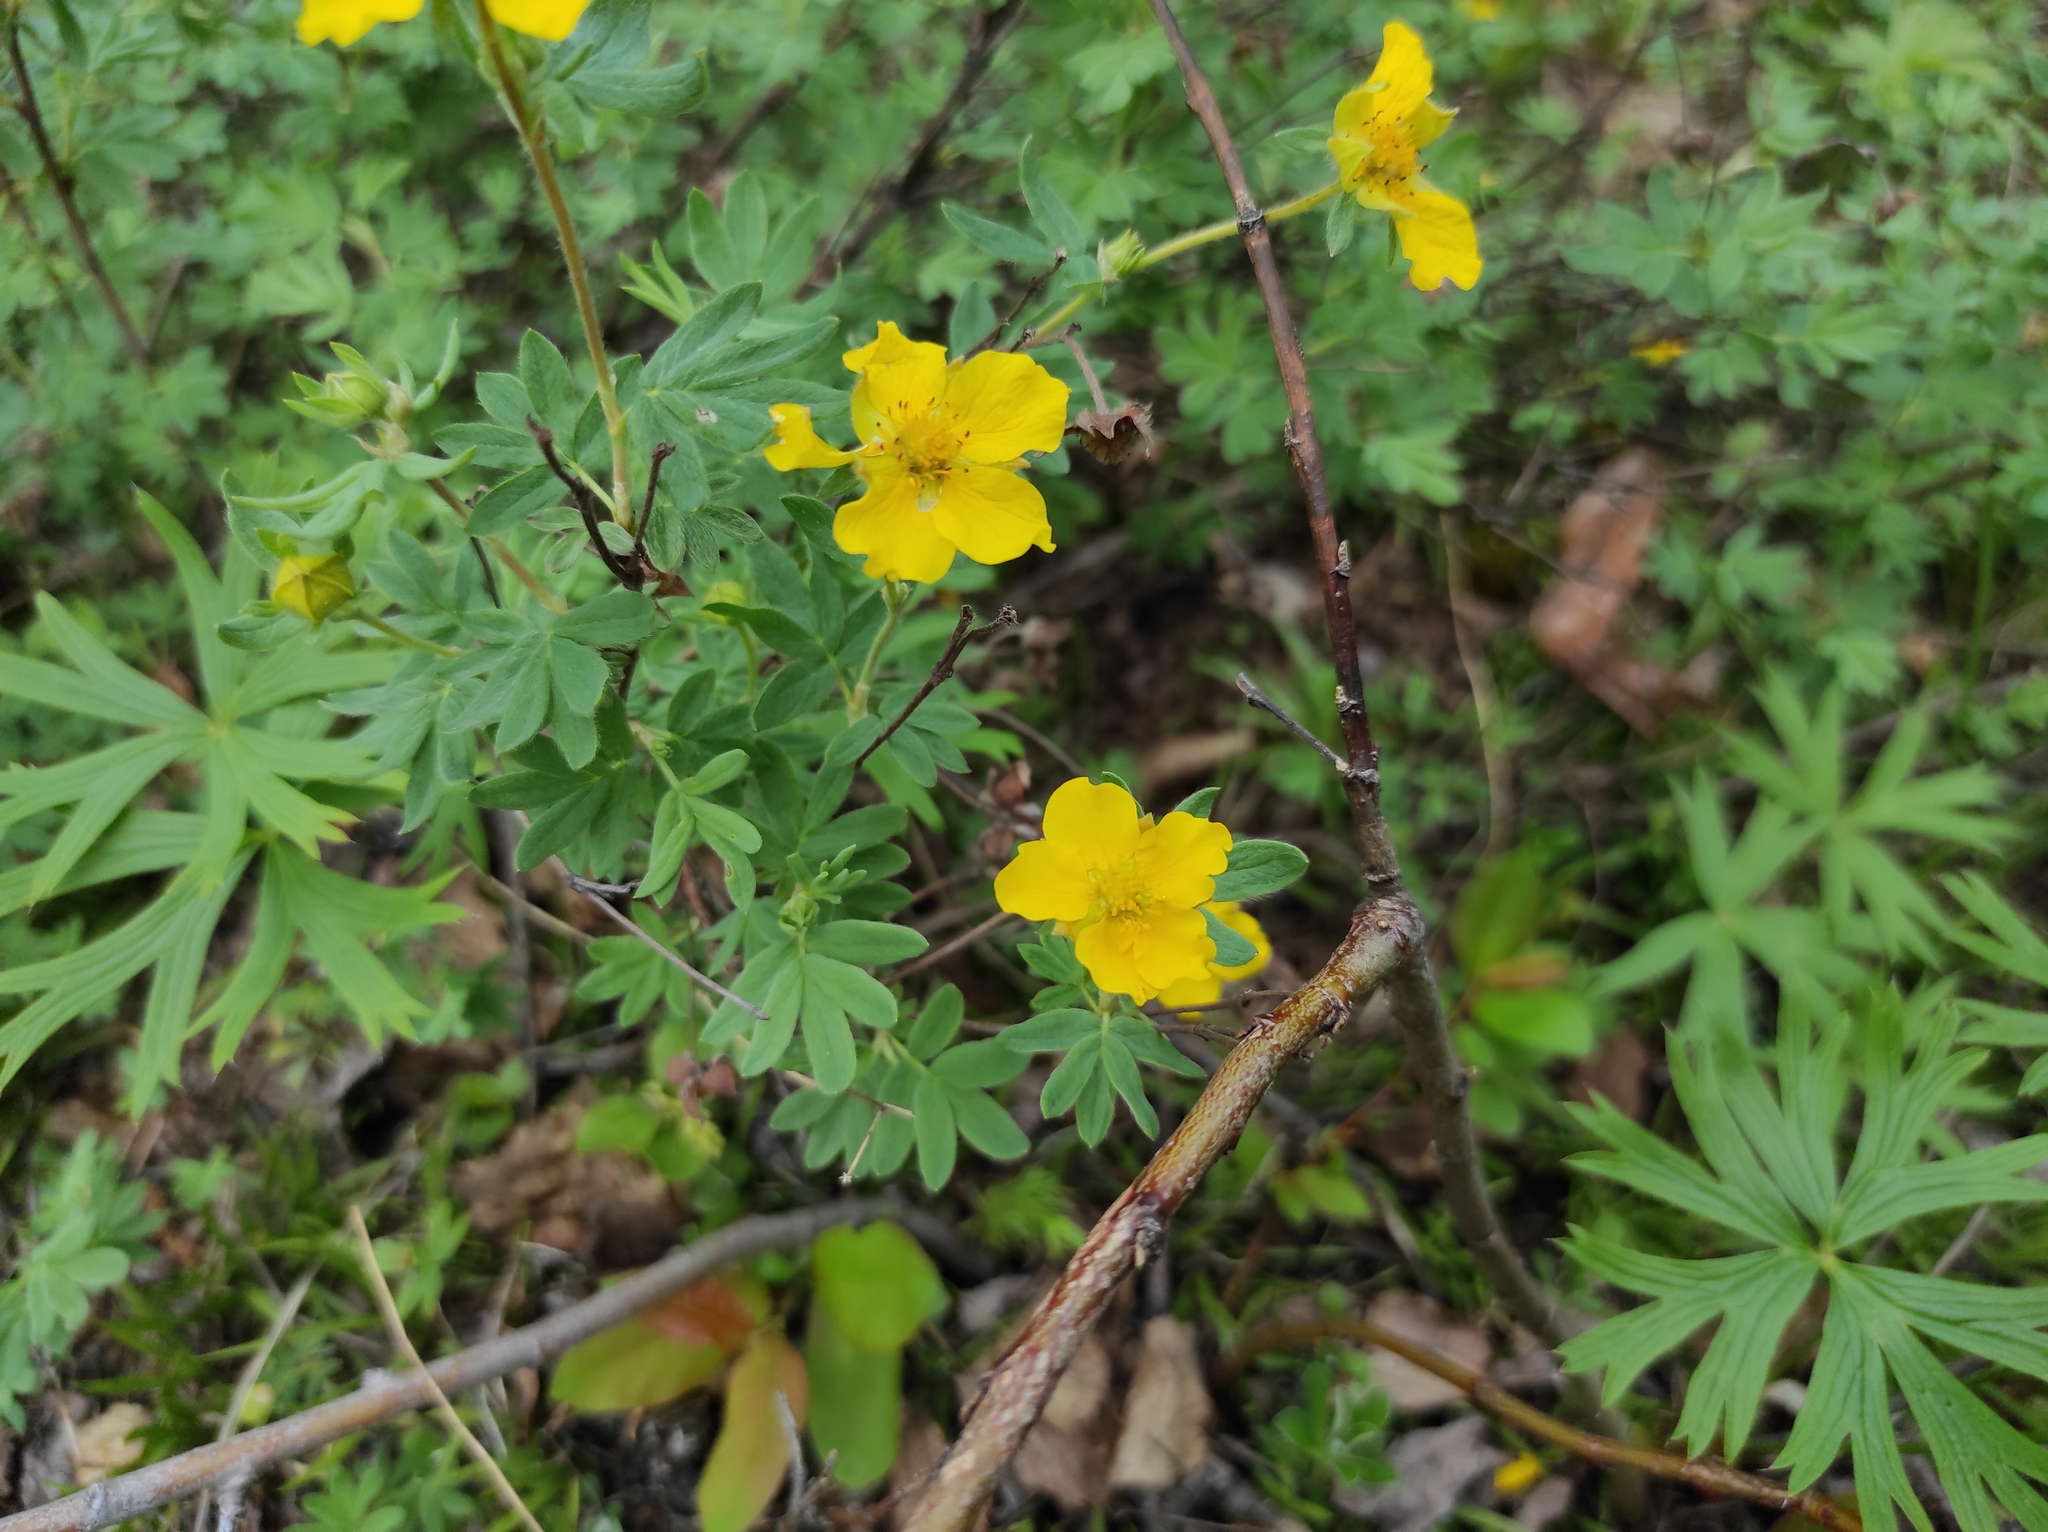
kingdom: Plantae
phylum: Tracheophyta
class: Magnoliopsida
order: Rosales
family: Rosaceae
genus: Dasiphora
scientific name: Dasiphora fruticosa
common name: Shrubby cinquefoil
